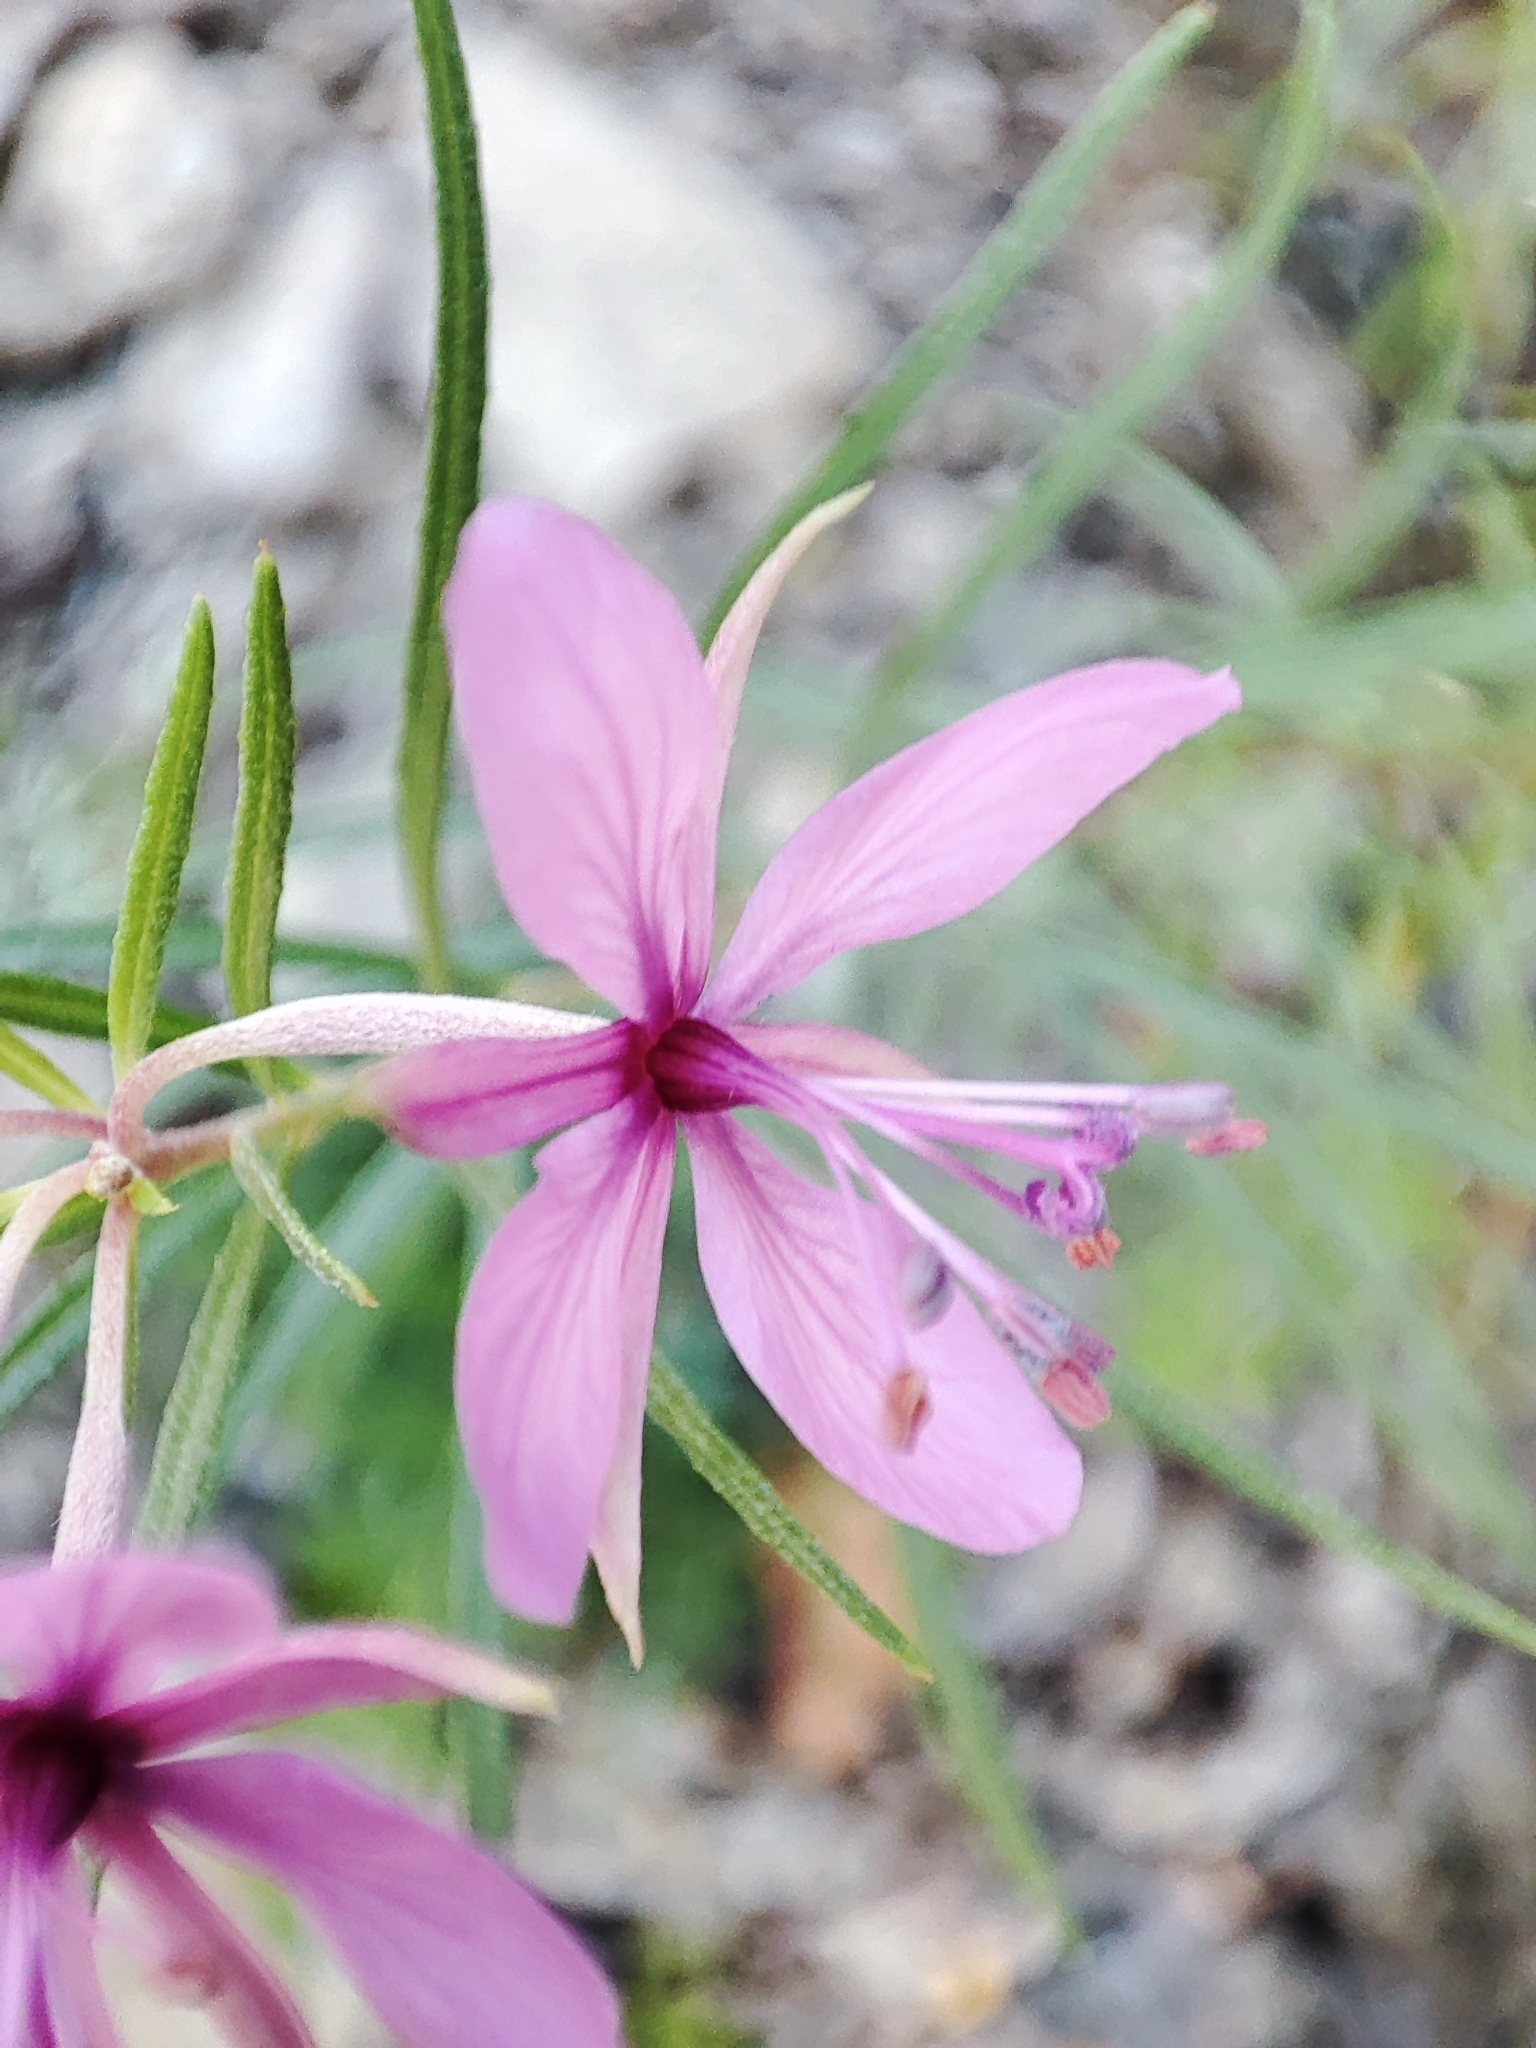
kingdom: Plantae
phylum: Tracheophyta
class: Magnoliopsida
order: Myrtales
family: Onagraceae
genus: Chamaenerion
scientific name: Chamaenerion dodonaei
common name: Rosemary-leaved willowherb
